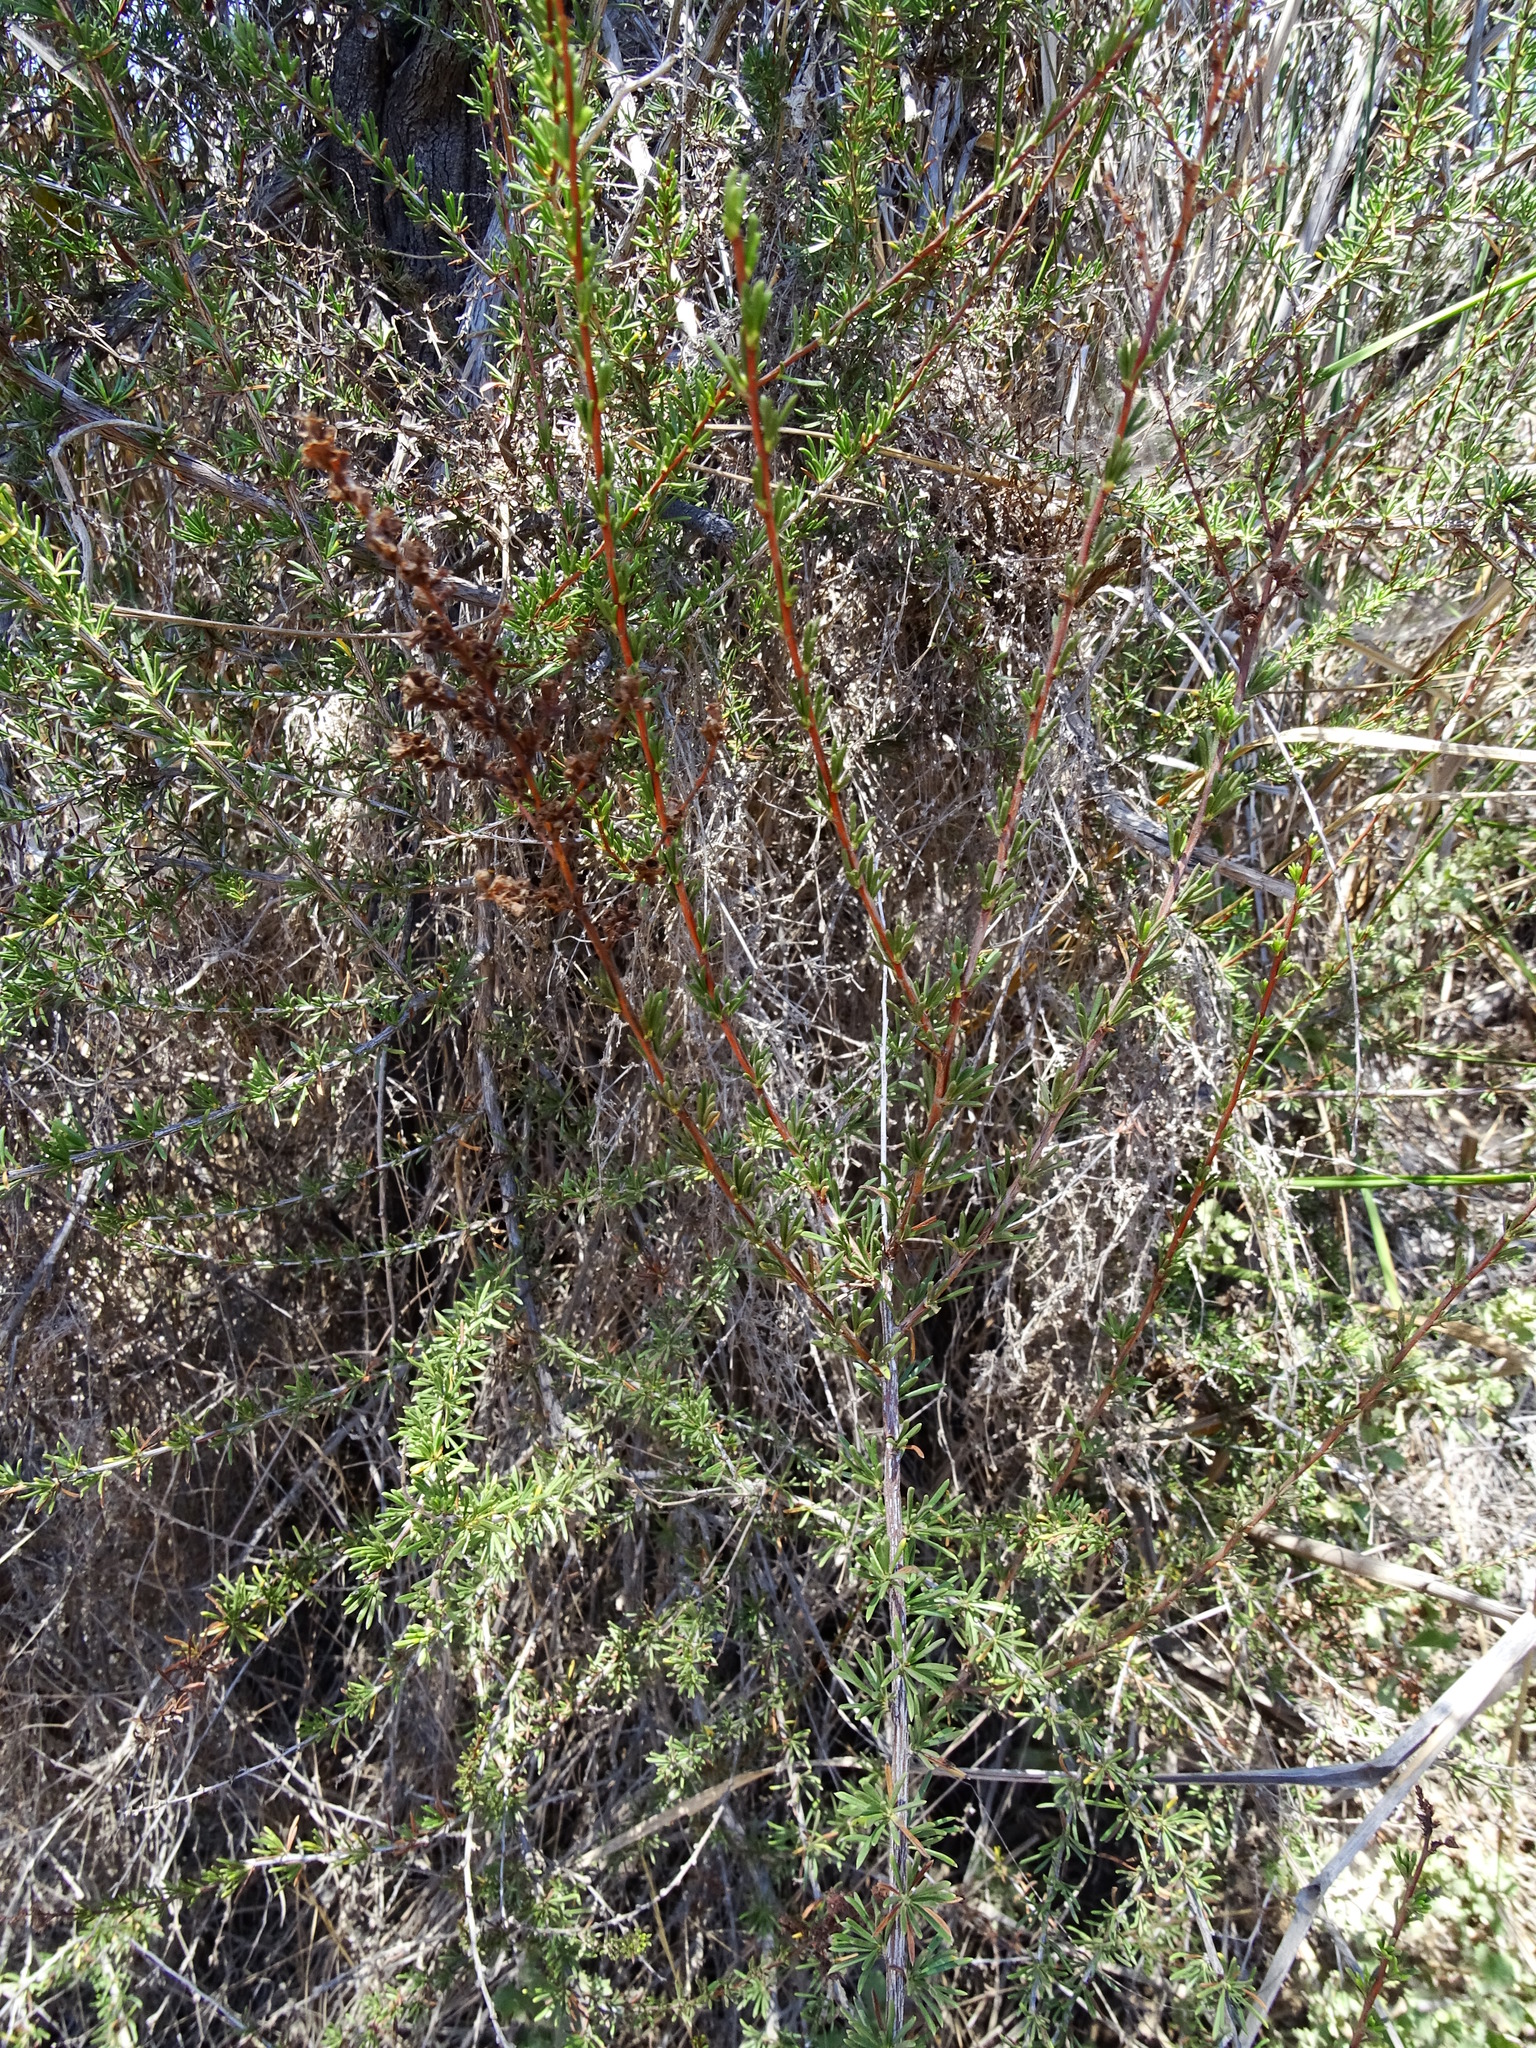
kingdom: Plantae
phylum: Tracheophyta
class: Magnoliopsida
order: Rosales
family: Rosaceae
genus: Adenostoma
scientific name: Adenostoma fasciculatum
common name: Chamise
